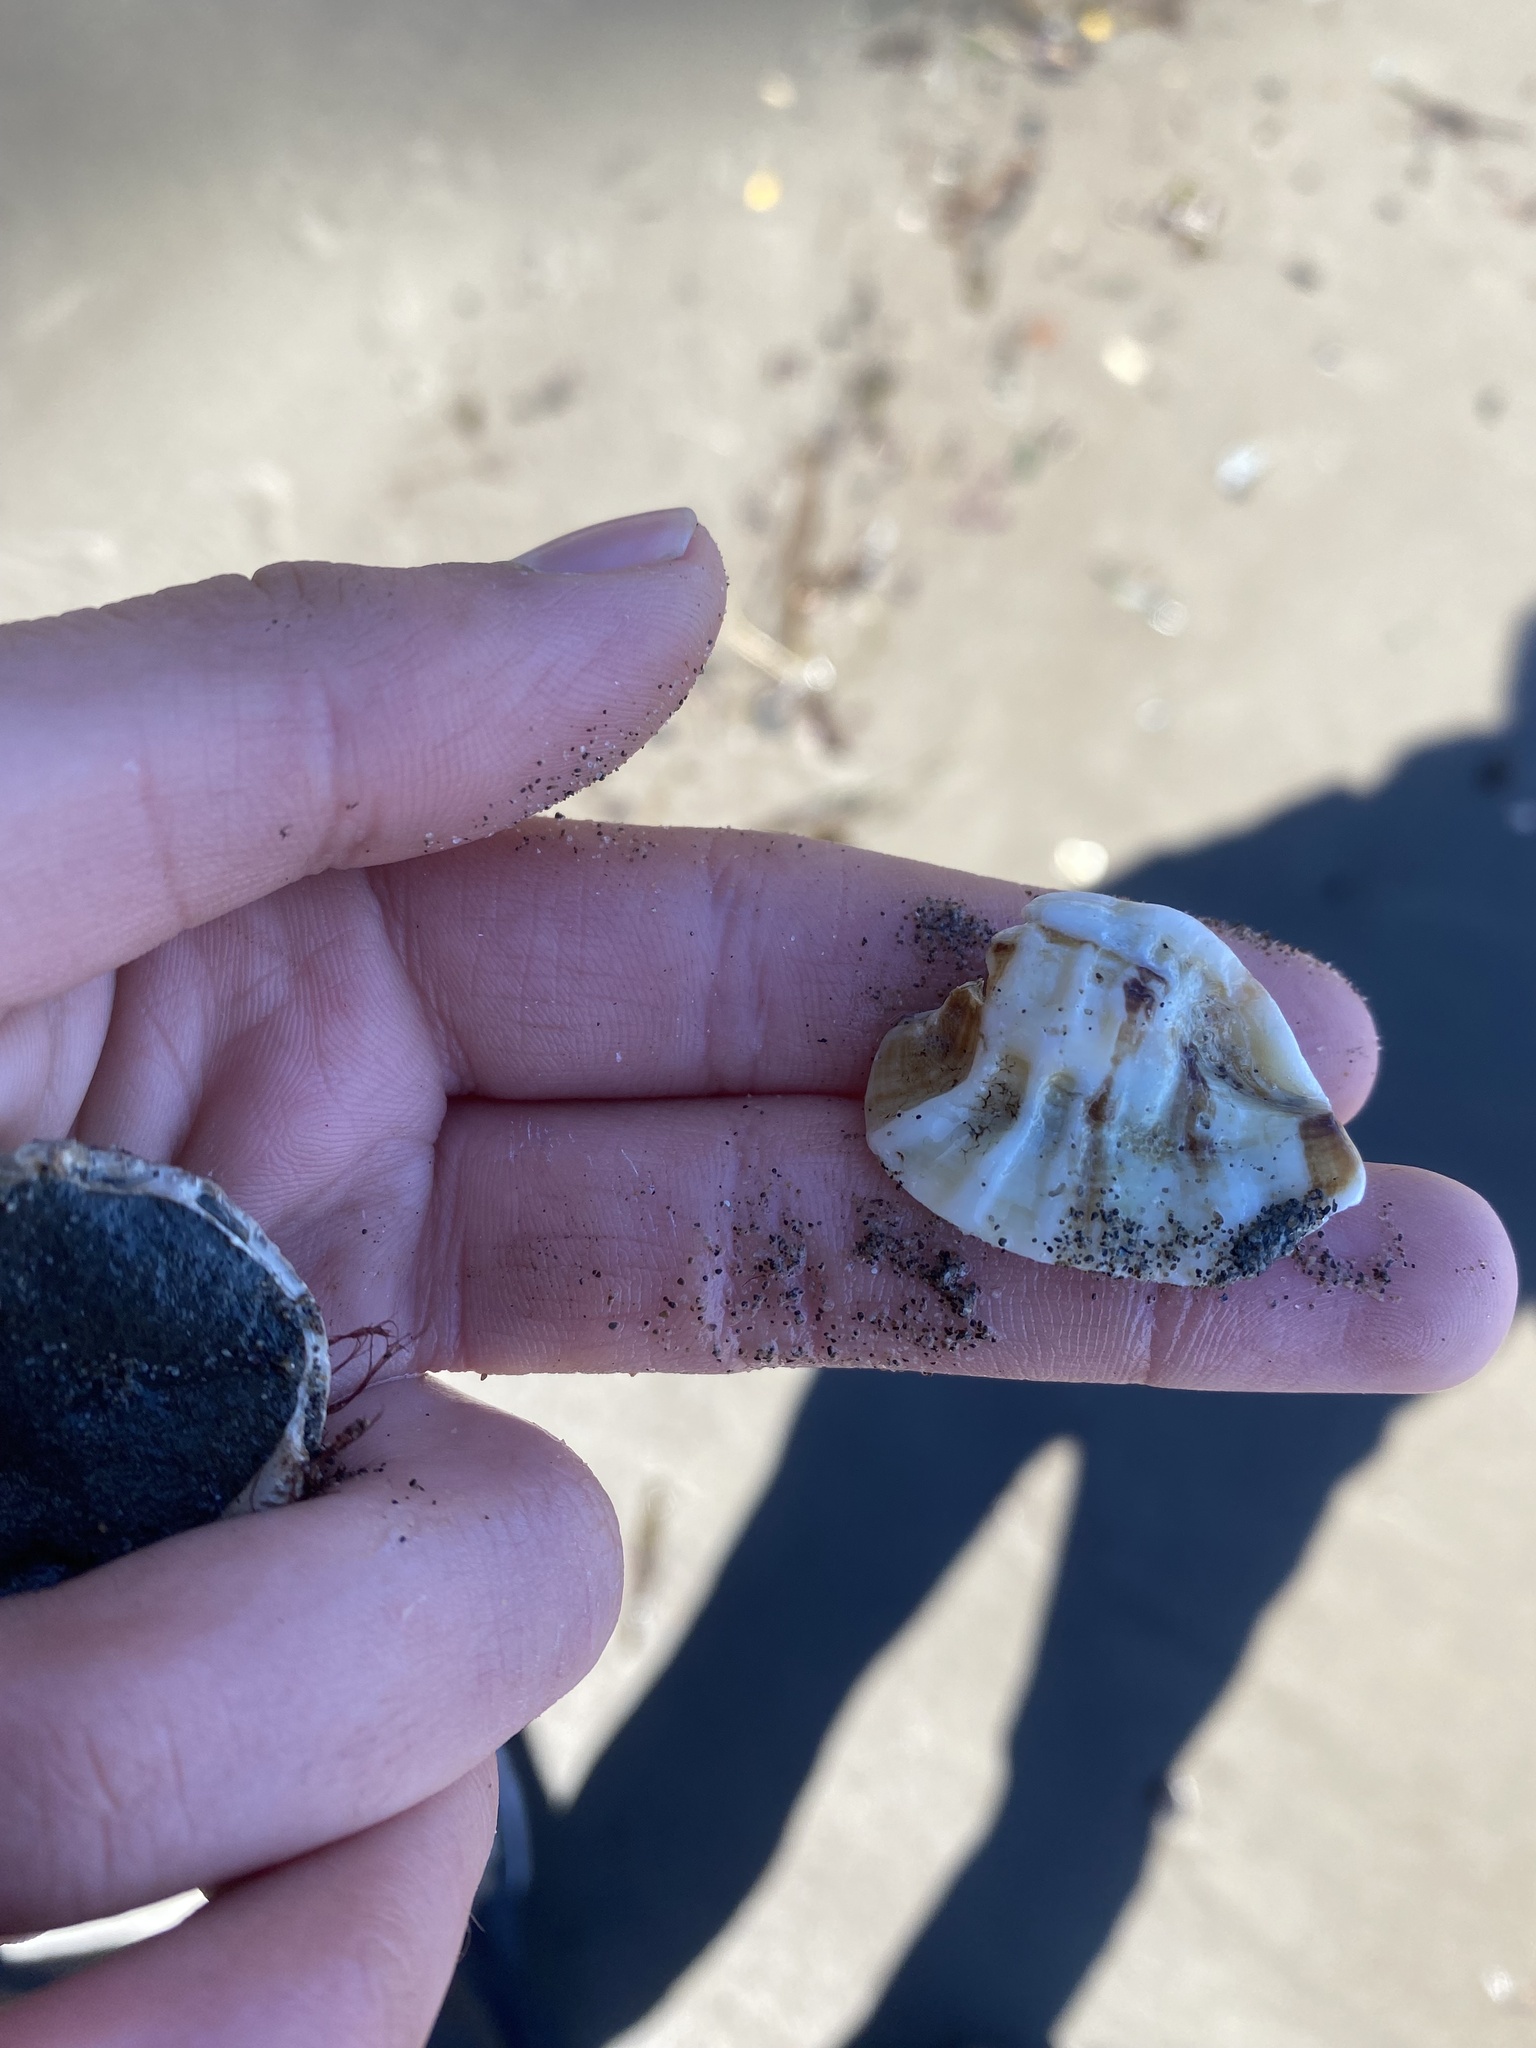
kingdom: Animalia
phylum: Mollusca
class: Gastropoda
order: Neogastropoda
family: Muricidae
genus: Ceratostoma
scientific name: Ceratostoma foliatum
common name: Foliate thorn purpura
